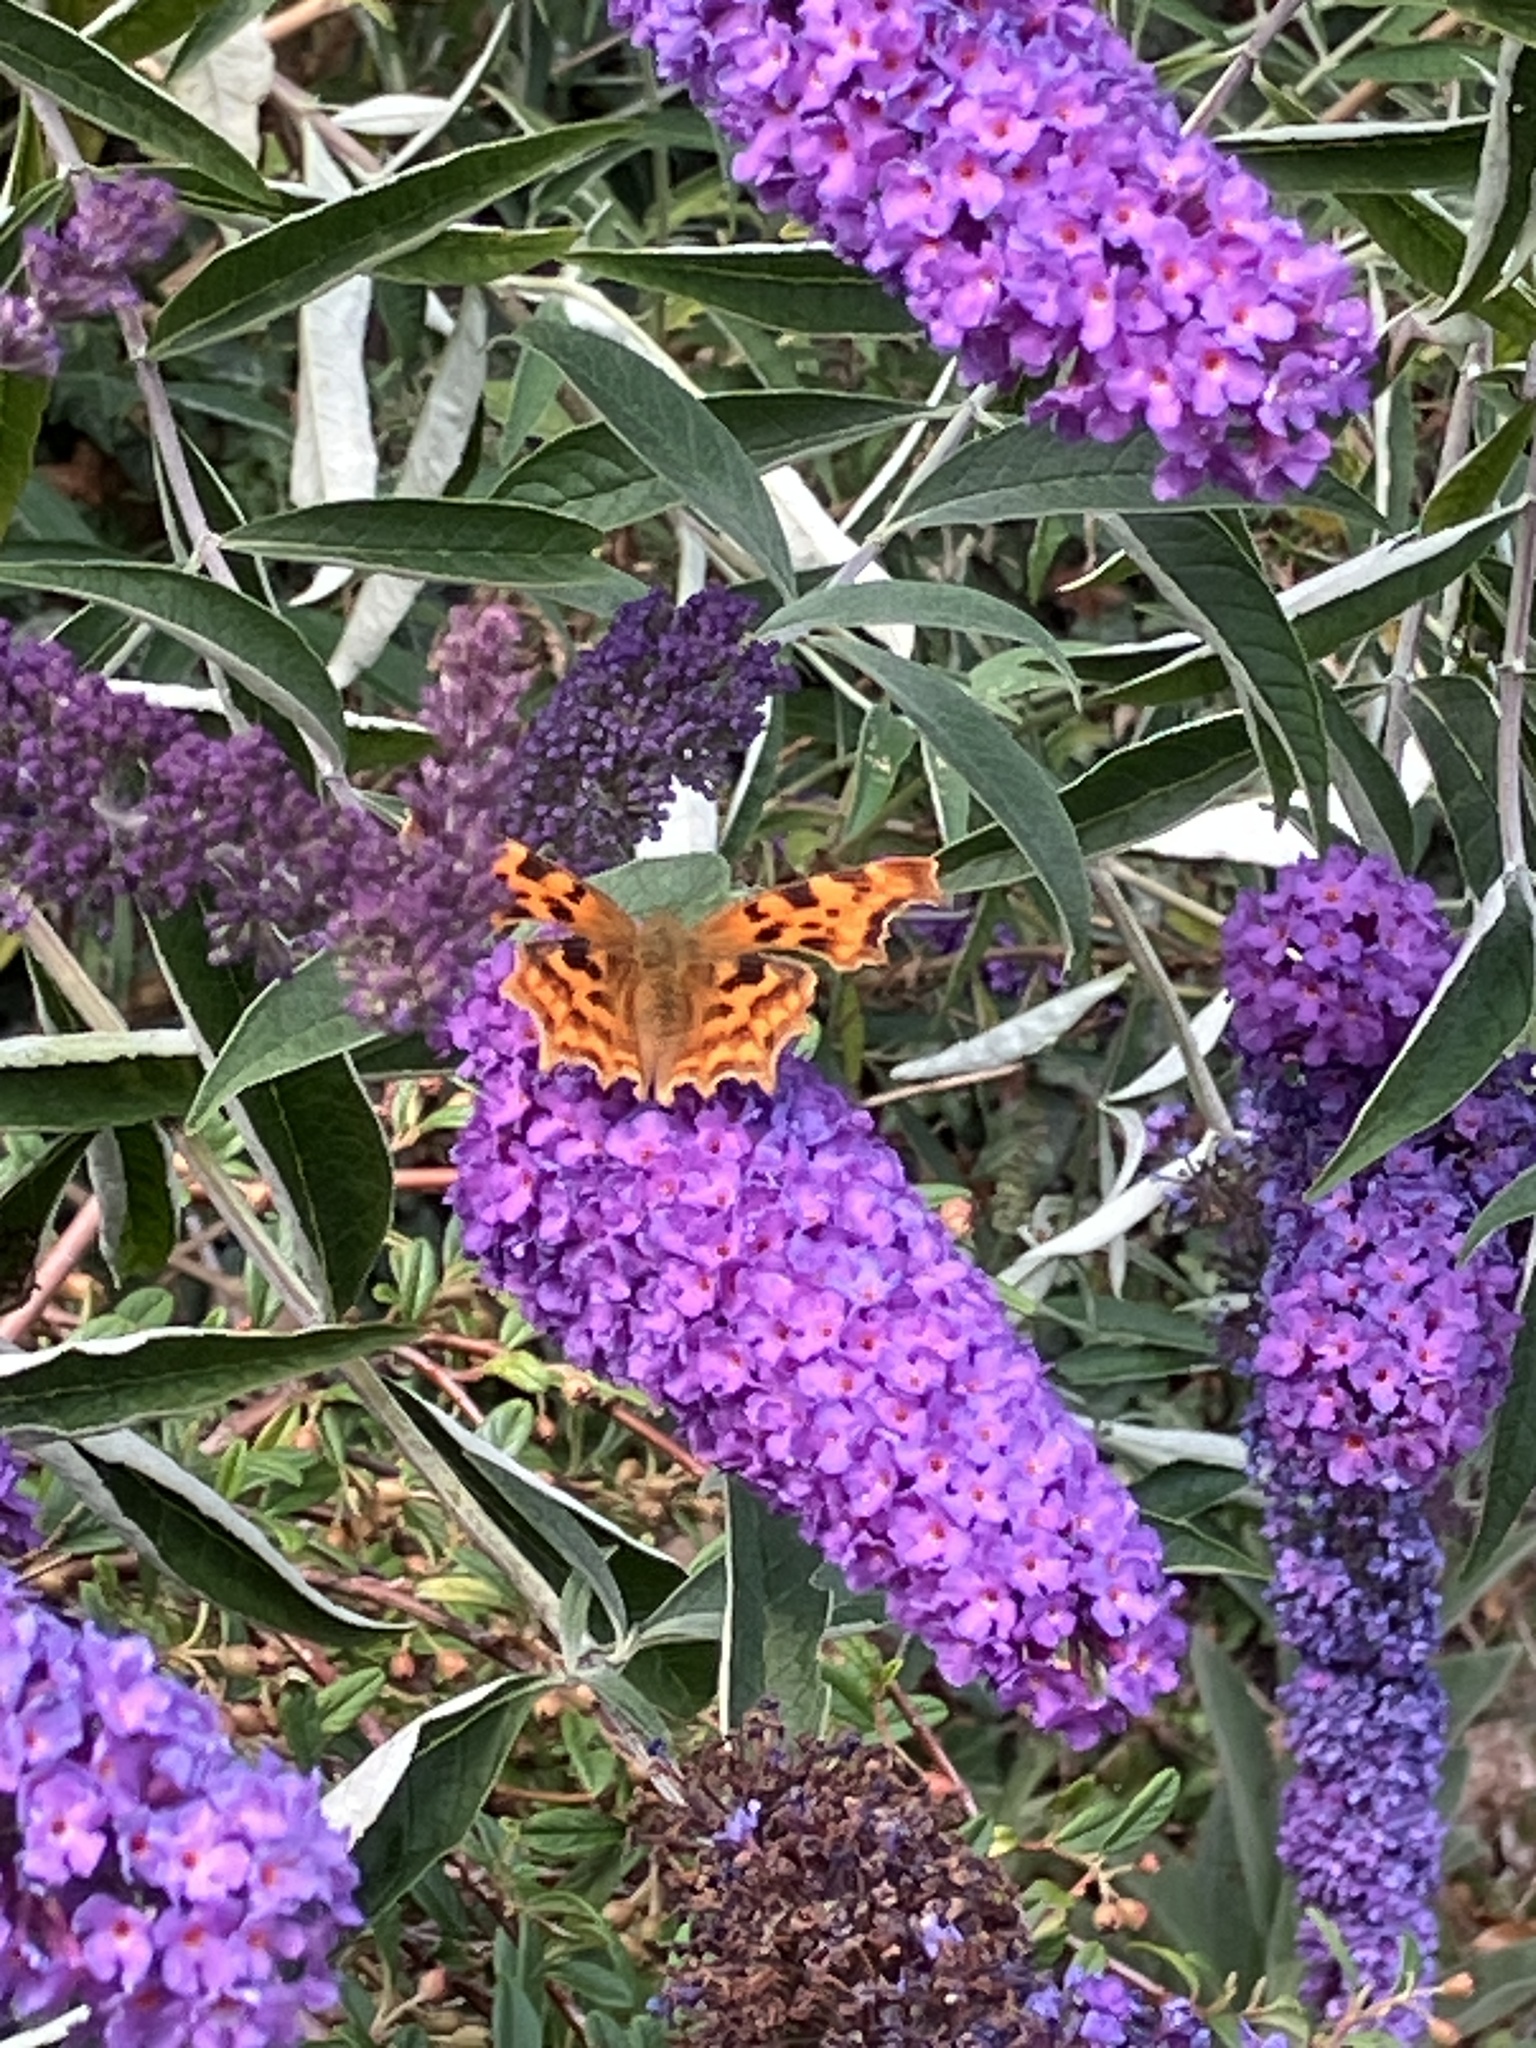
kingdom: Animalia
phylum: Arthropoda
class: Insecta
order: Lepidoptera
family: Nymphalidae
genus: Polygonia
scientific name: Polygonia c-album
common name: Comma
